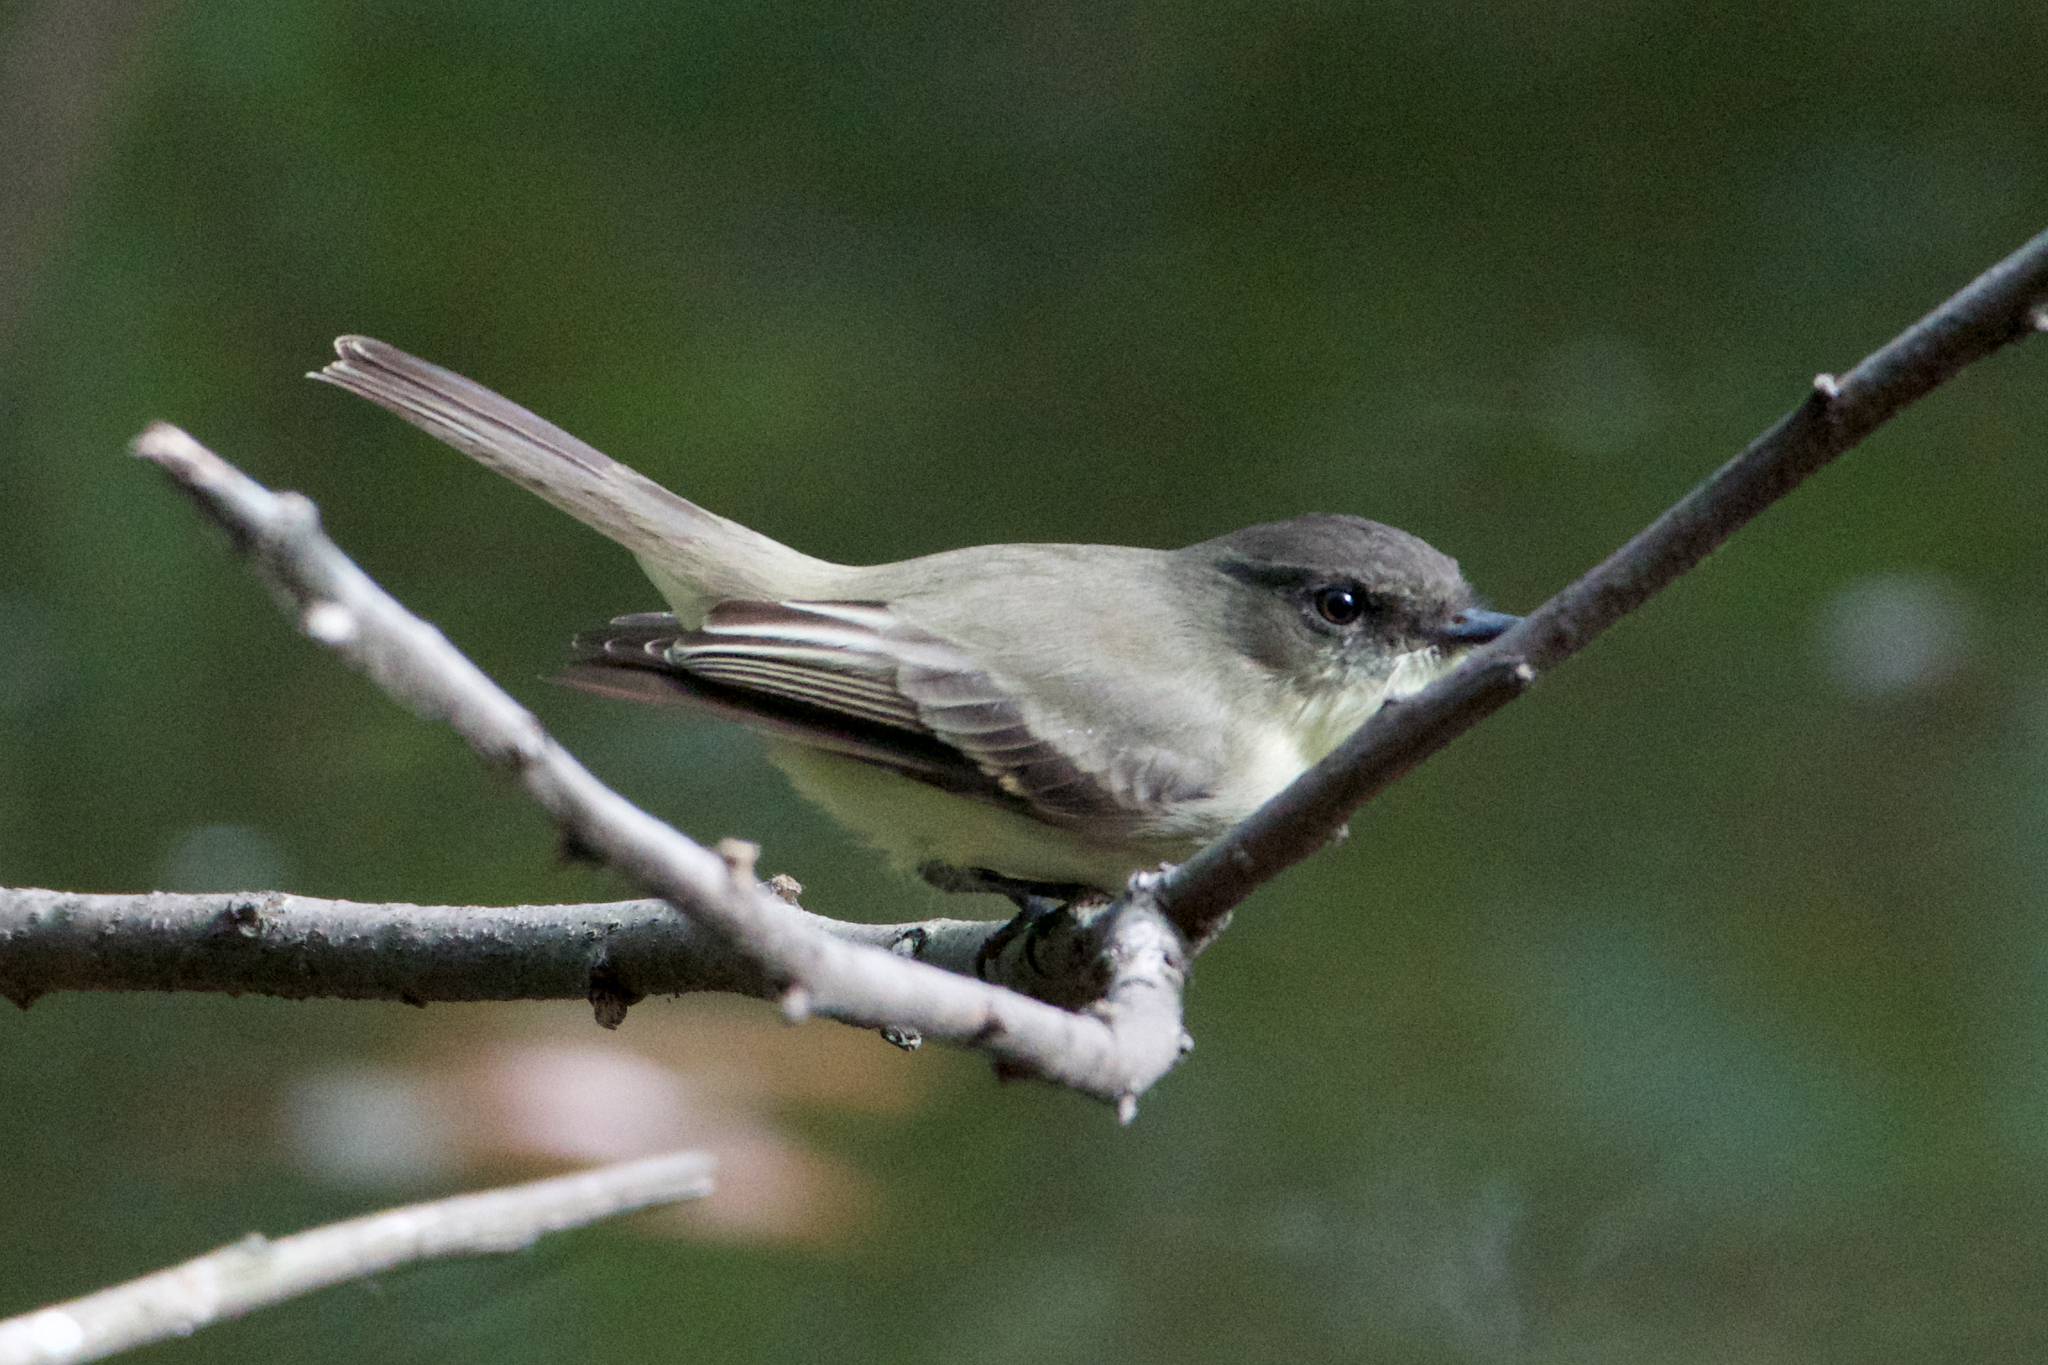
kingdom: Animalia
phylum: Chordata
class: Aves
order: Passeriformes
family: Tyrannidae
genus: Sayornis
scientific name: Sayornis phoebe
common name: Eastern phoebe
